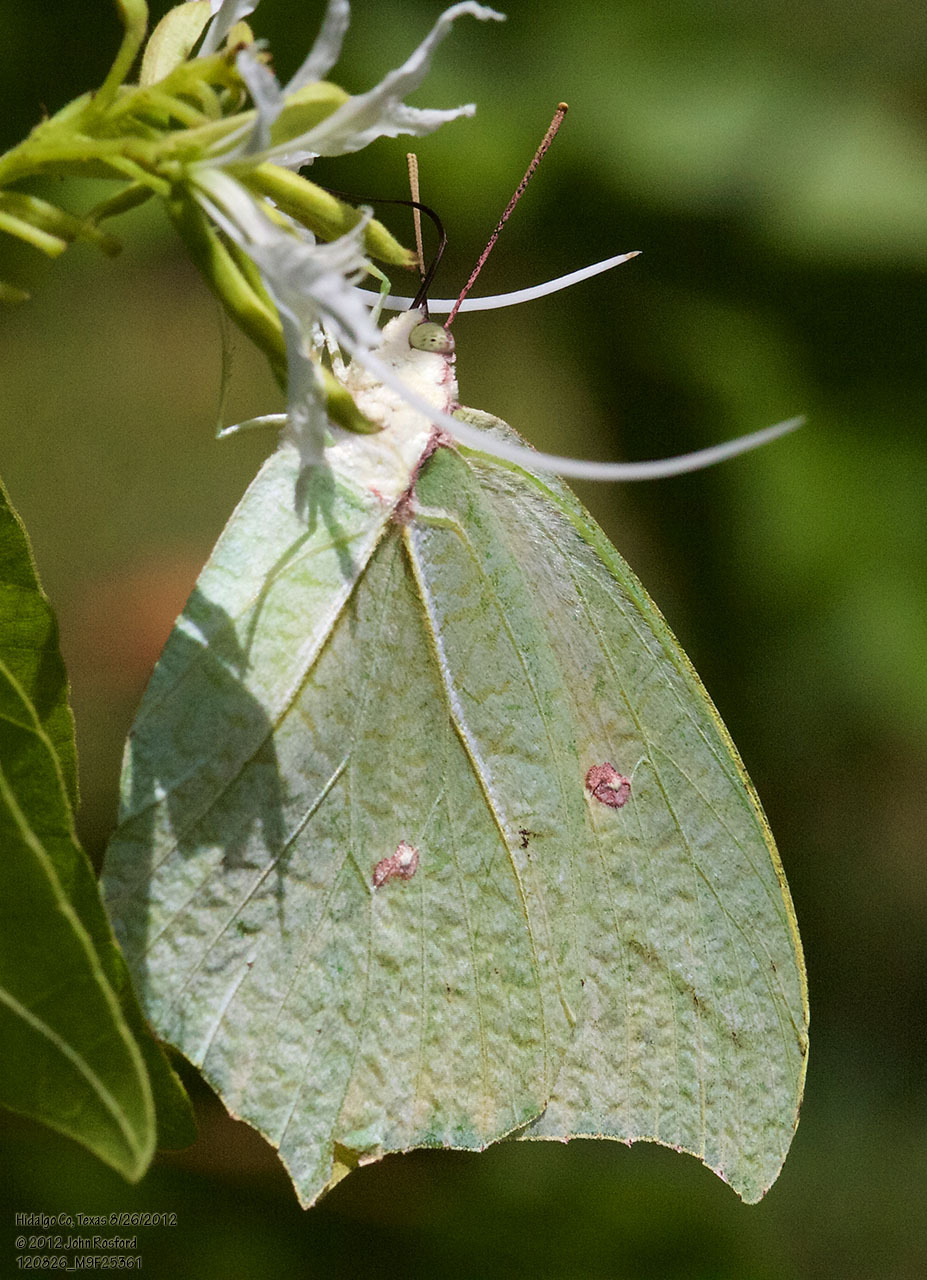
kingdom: Animalia
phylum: Arthropoda
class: Insecta
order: Lepidoptera
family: Pieridae
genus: Anteos
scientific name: Anteos maerula
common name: Angled sulphur
